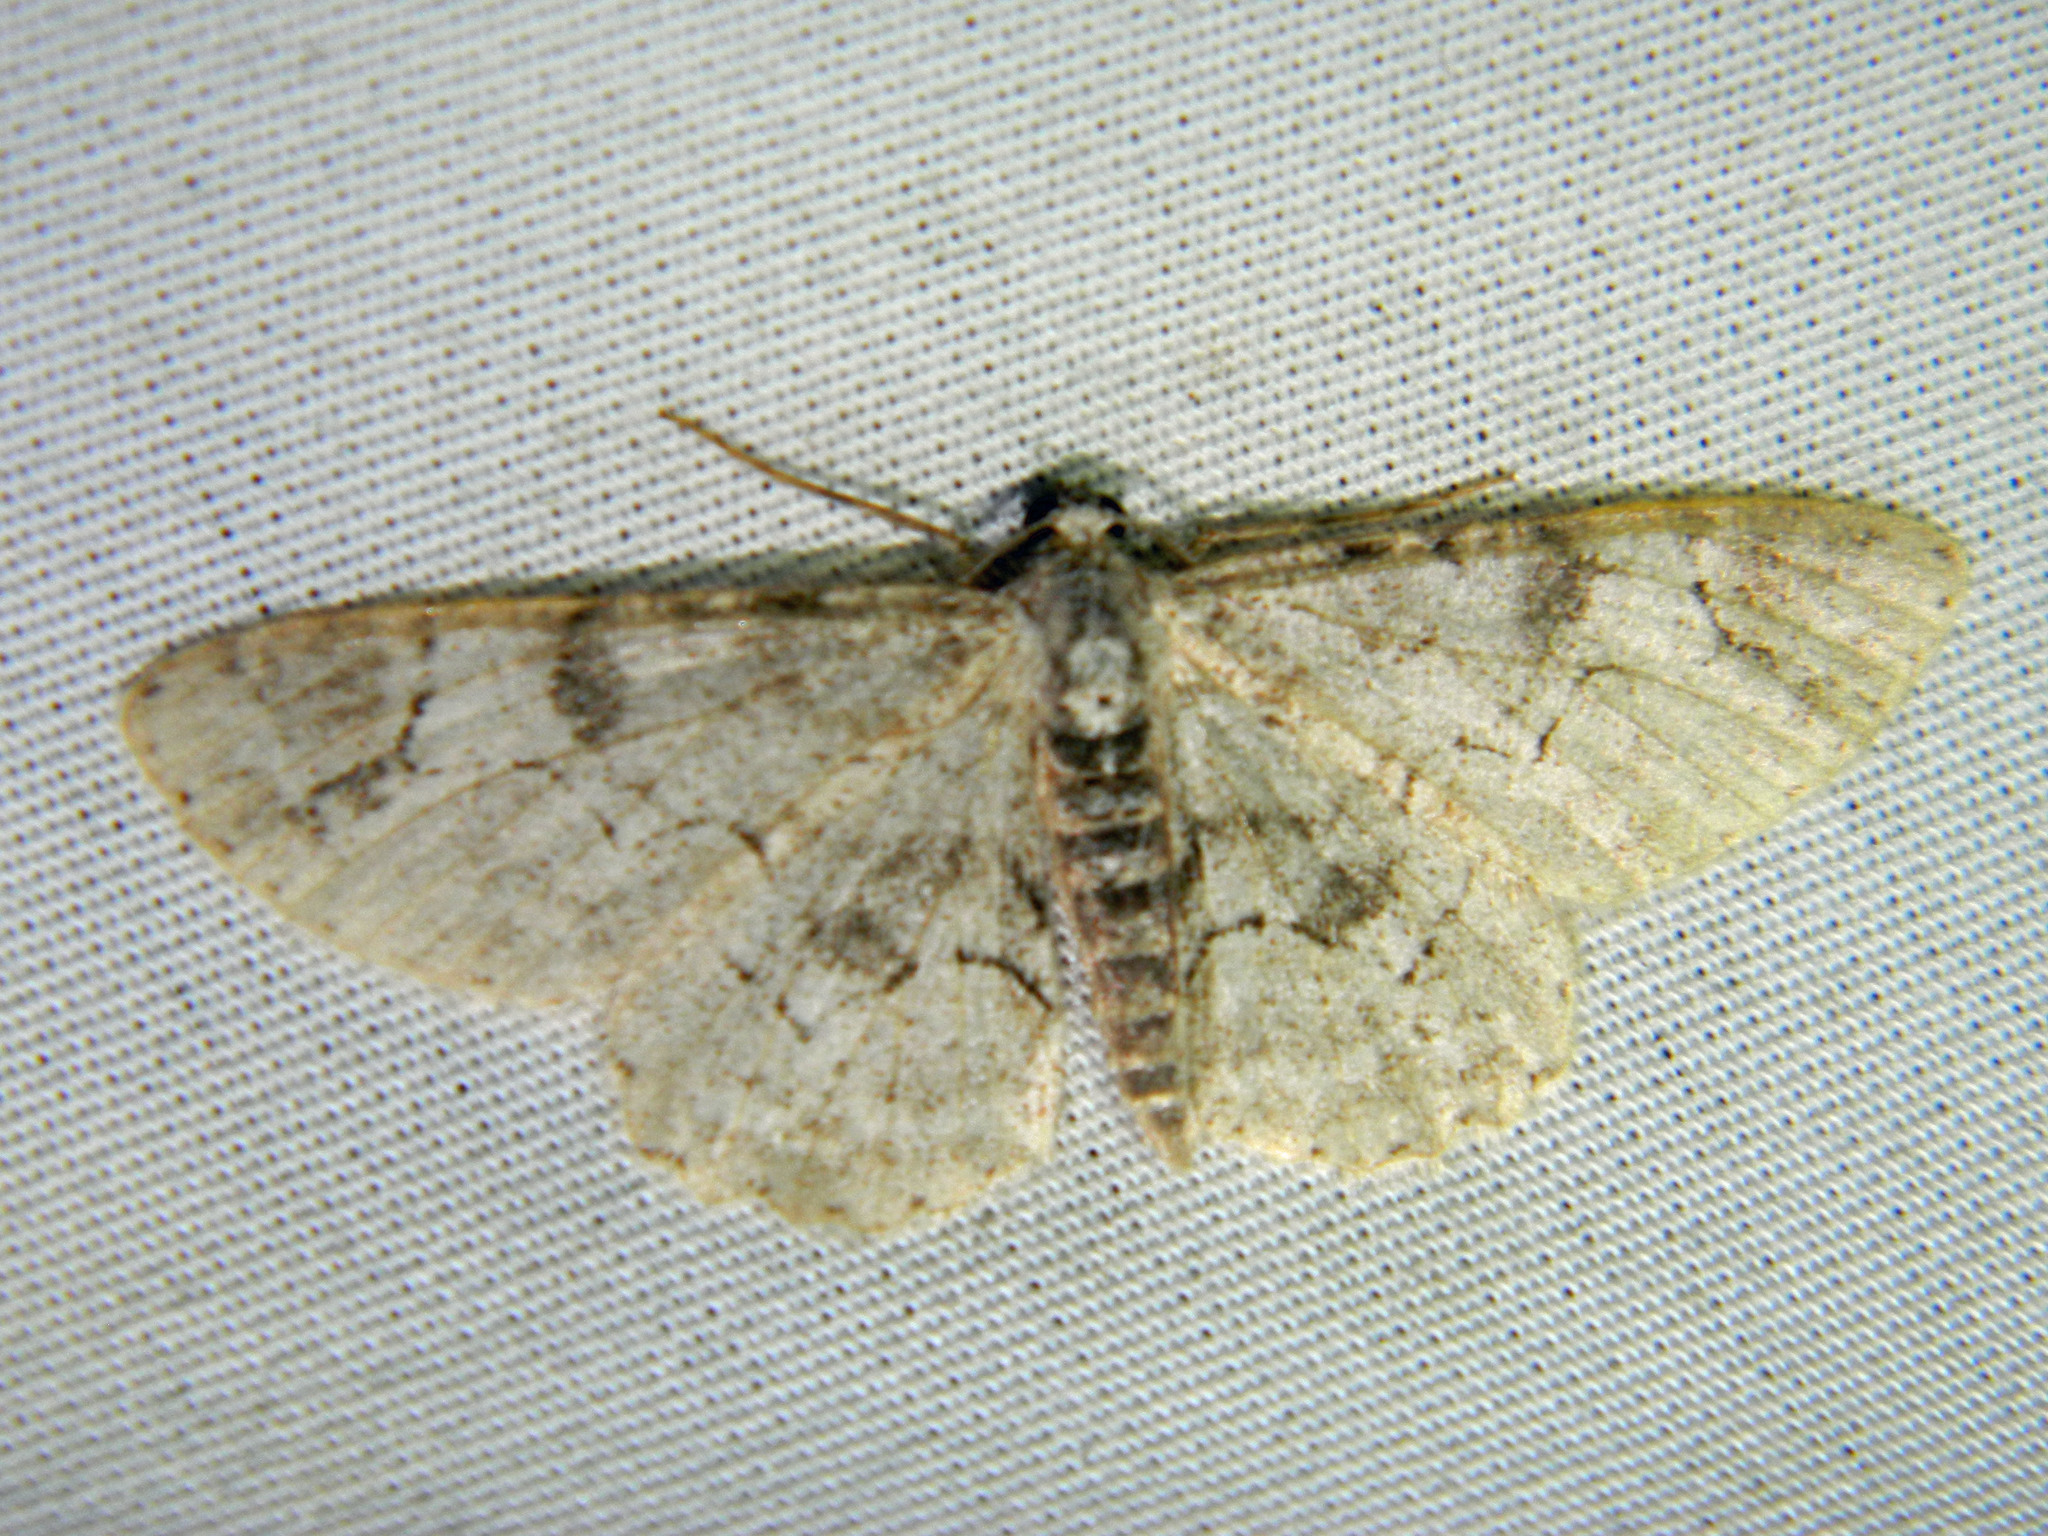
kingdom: Animalia
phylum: Arthropoda
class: Insecta
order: Lepidoptera
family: Geometridae
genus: Iridopsis
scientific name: Iridopsis larvaria
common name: Bent-line gray
